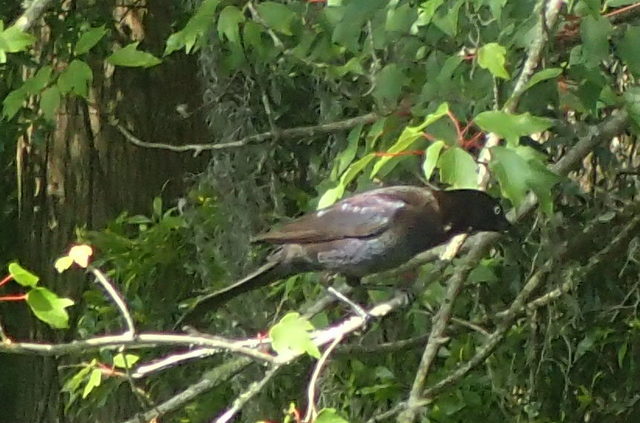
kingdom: Animalia
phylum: Chordata
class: Aves
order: Passeriformes
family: Icteridae
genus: Quiscalus
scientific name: Quiscalus quiscula
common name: Common grackle
